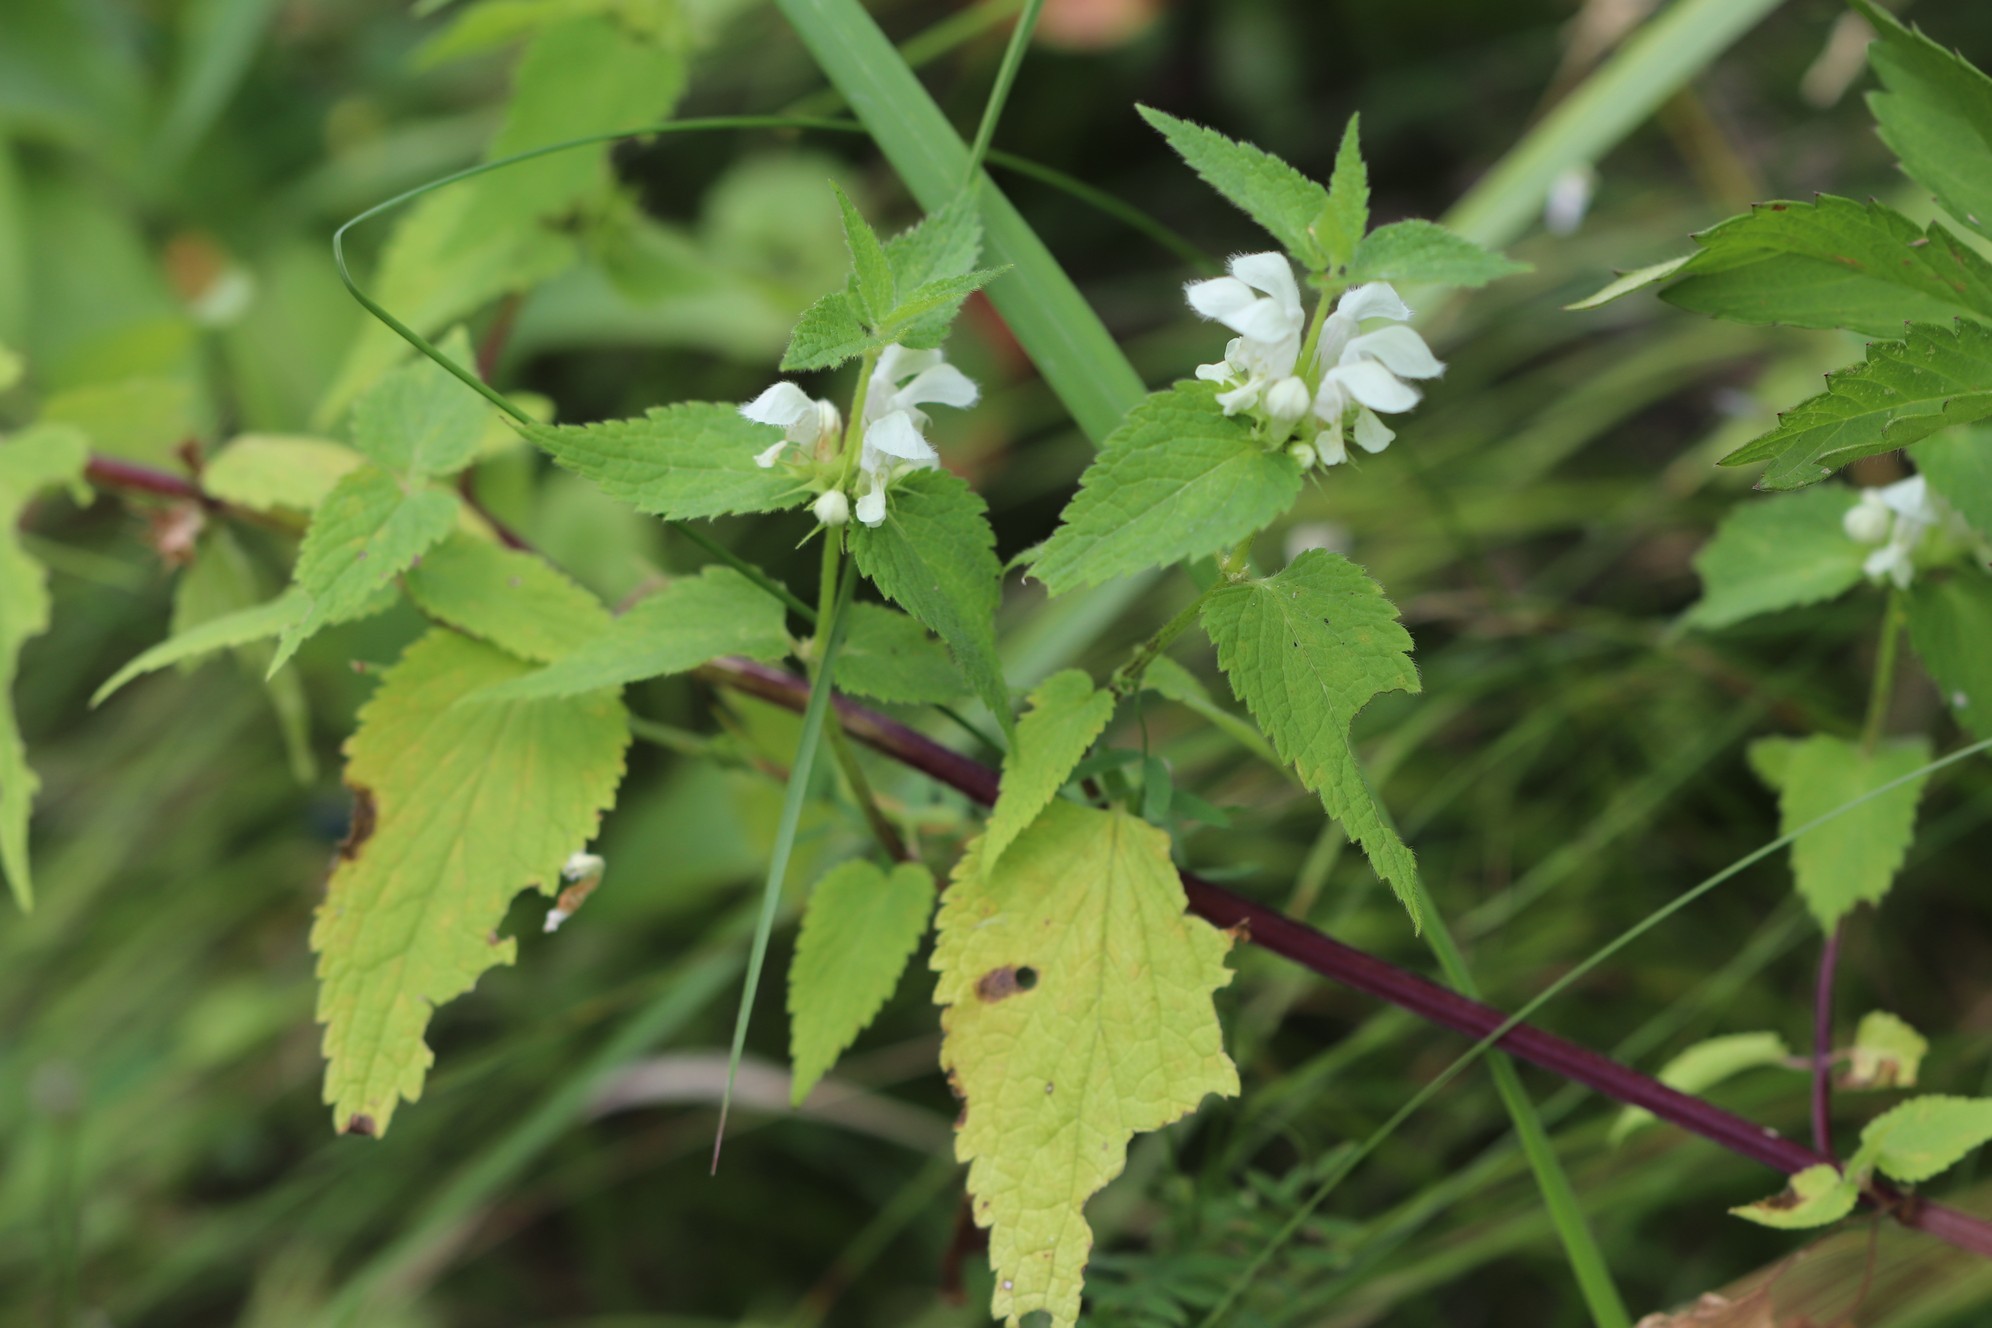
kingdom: Plantae
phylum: Tracheophyta
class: Magnoliopsida
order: Lamiales
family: Lamiaceae
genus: Lamium
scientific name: Lamium album
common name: White dead-nettle
